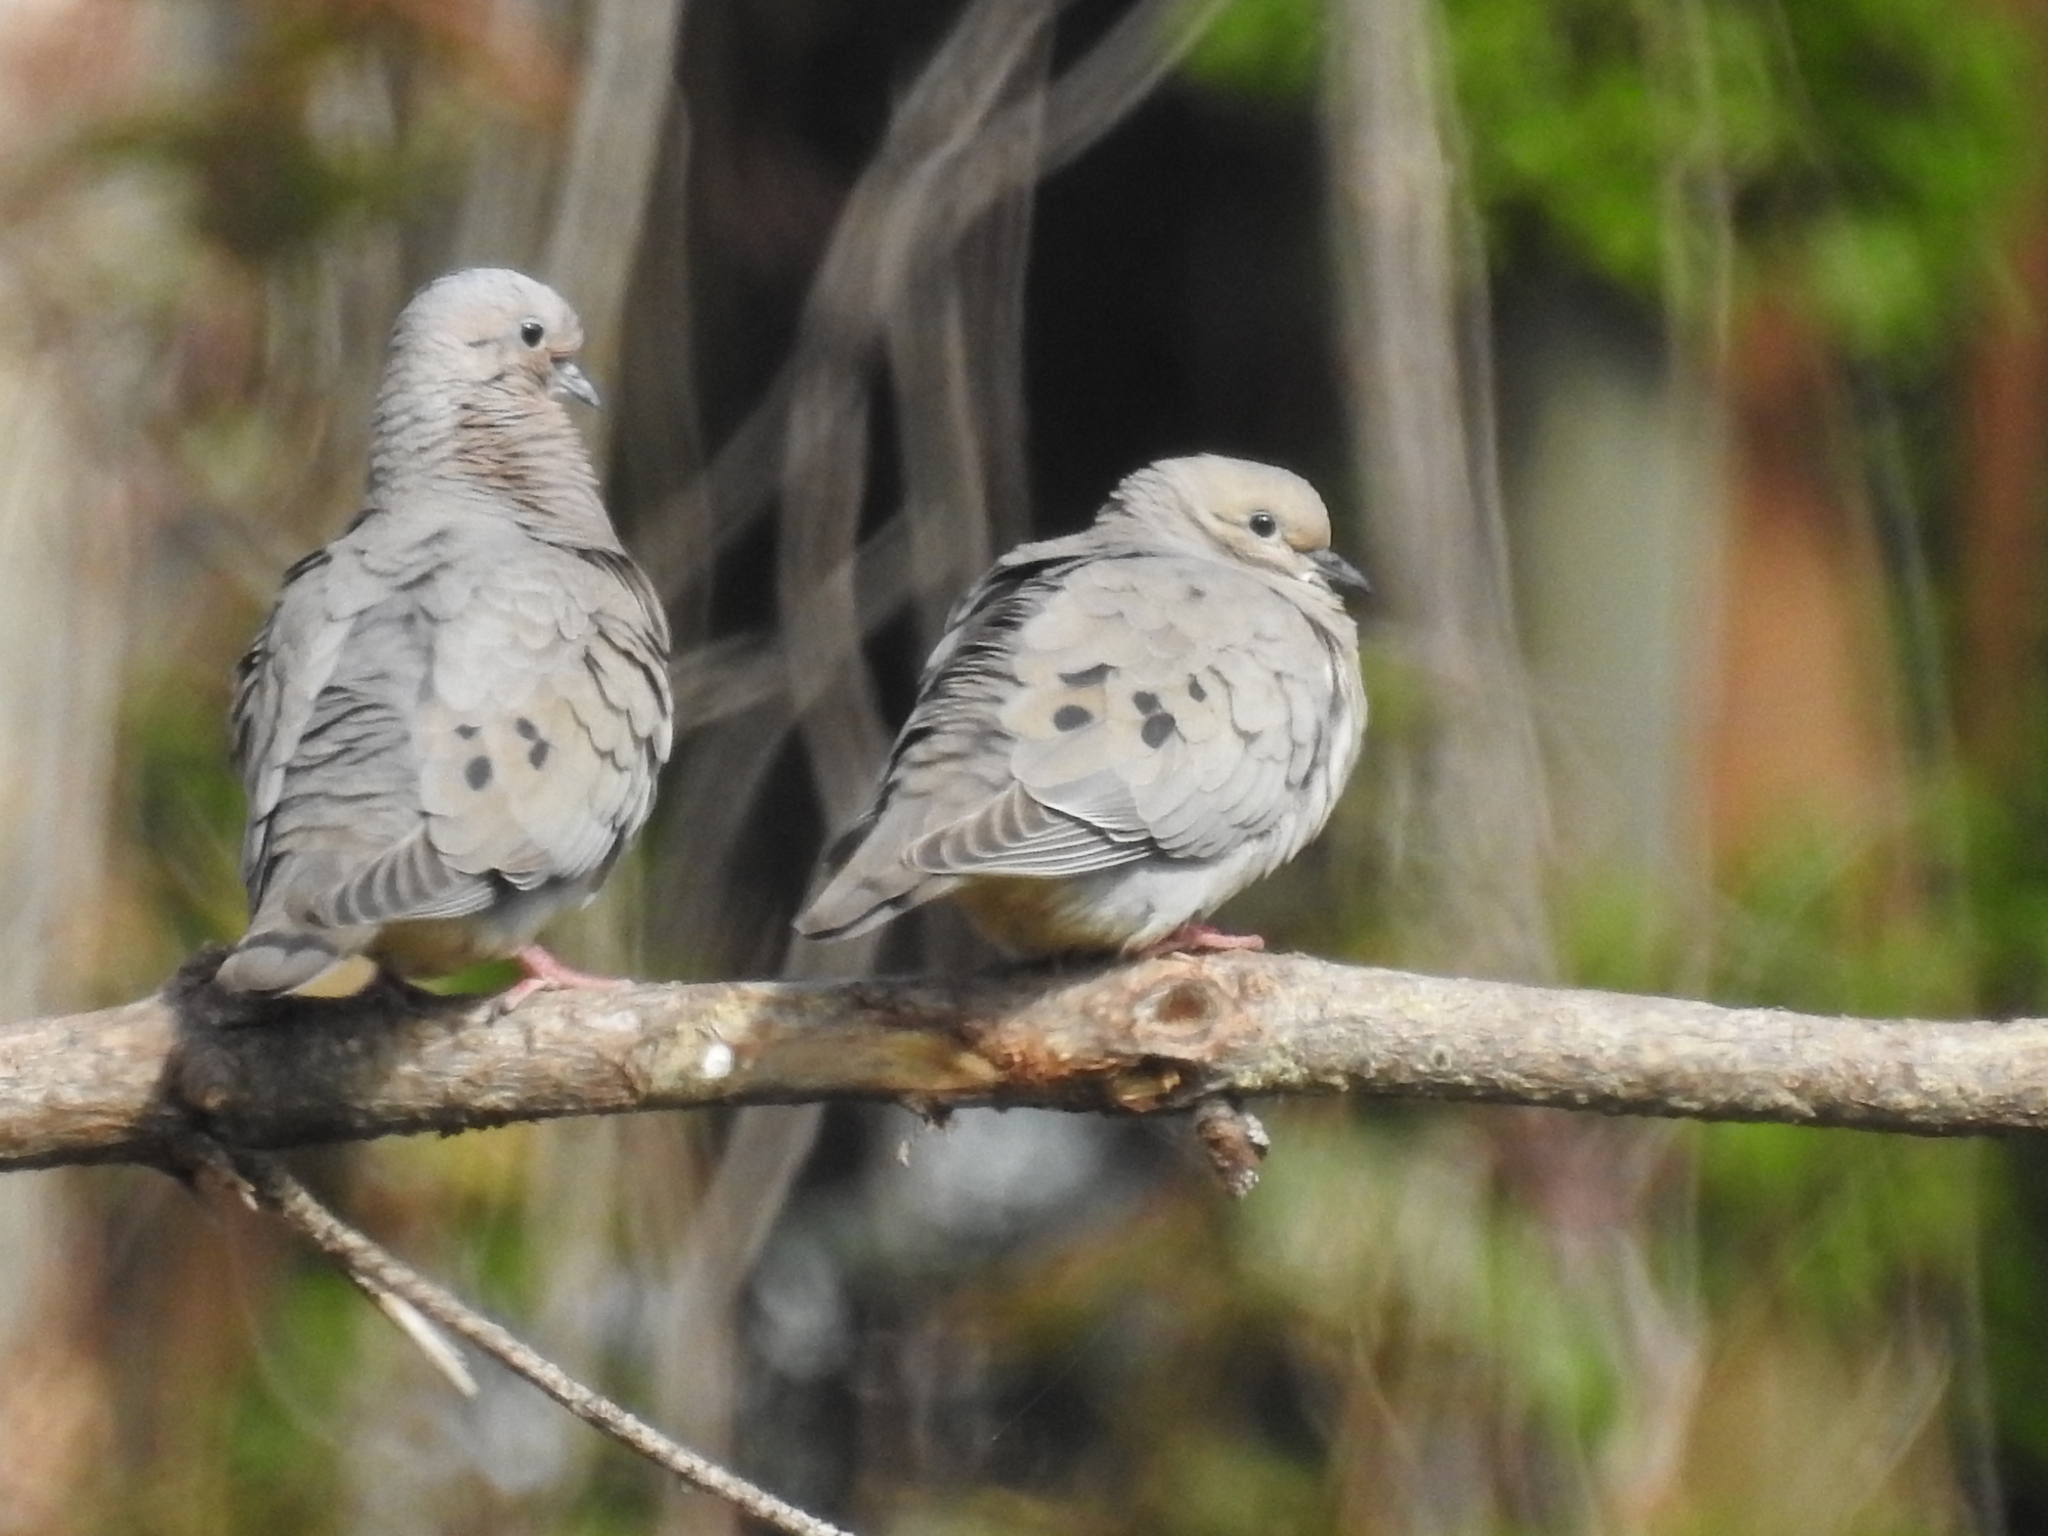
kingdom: Animalia
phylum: Chordata
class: Aves
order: Columbiformes
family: Columbidae
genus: Zenaida
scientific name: Zenaida auriculata
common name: Eared dove
